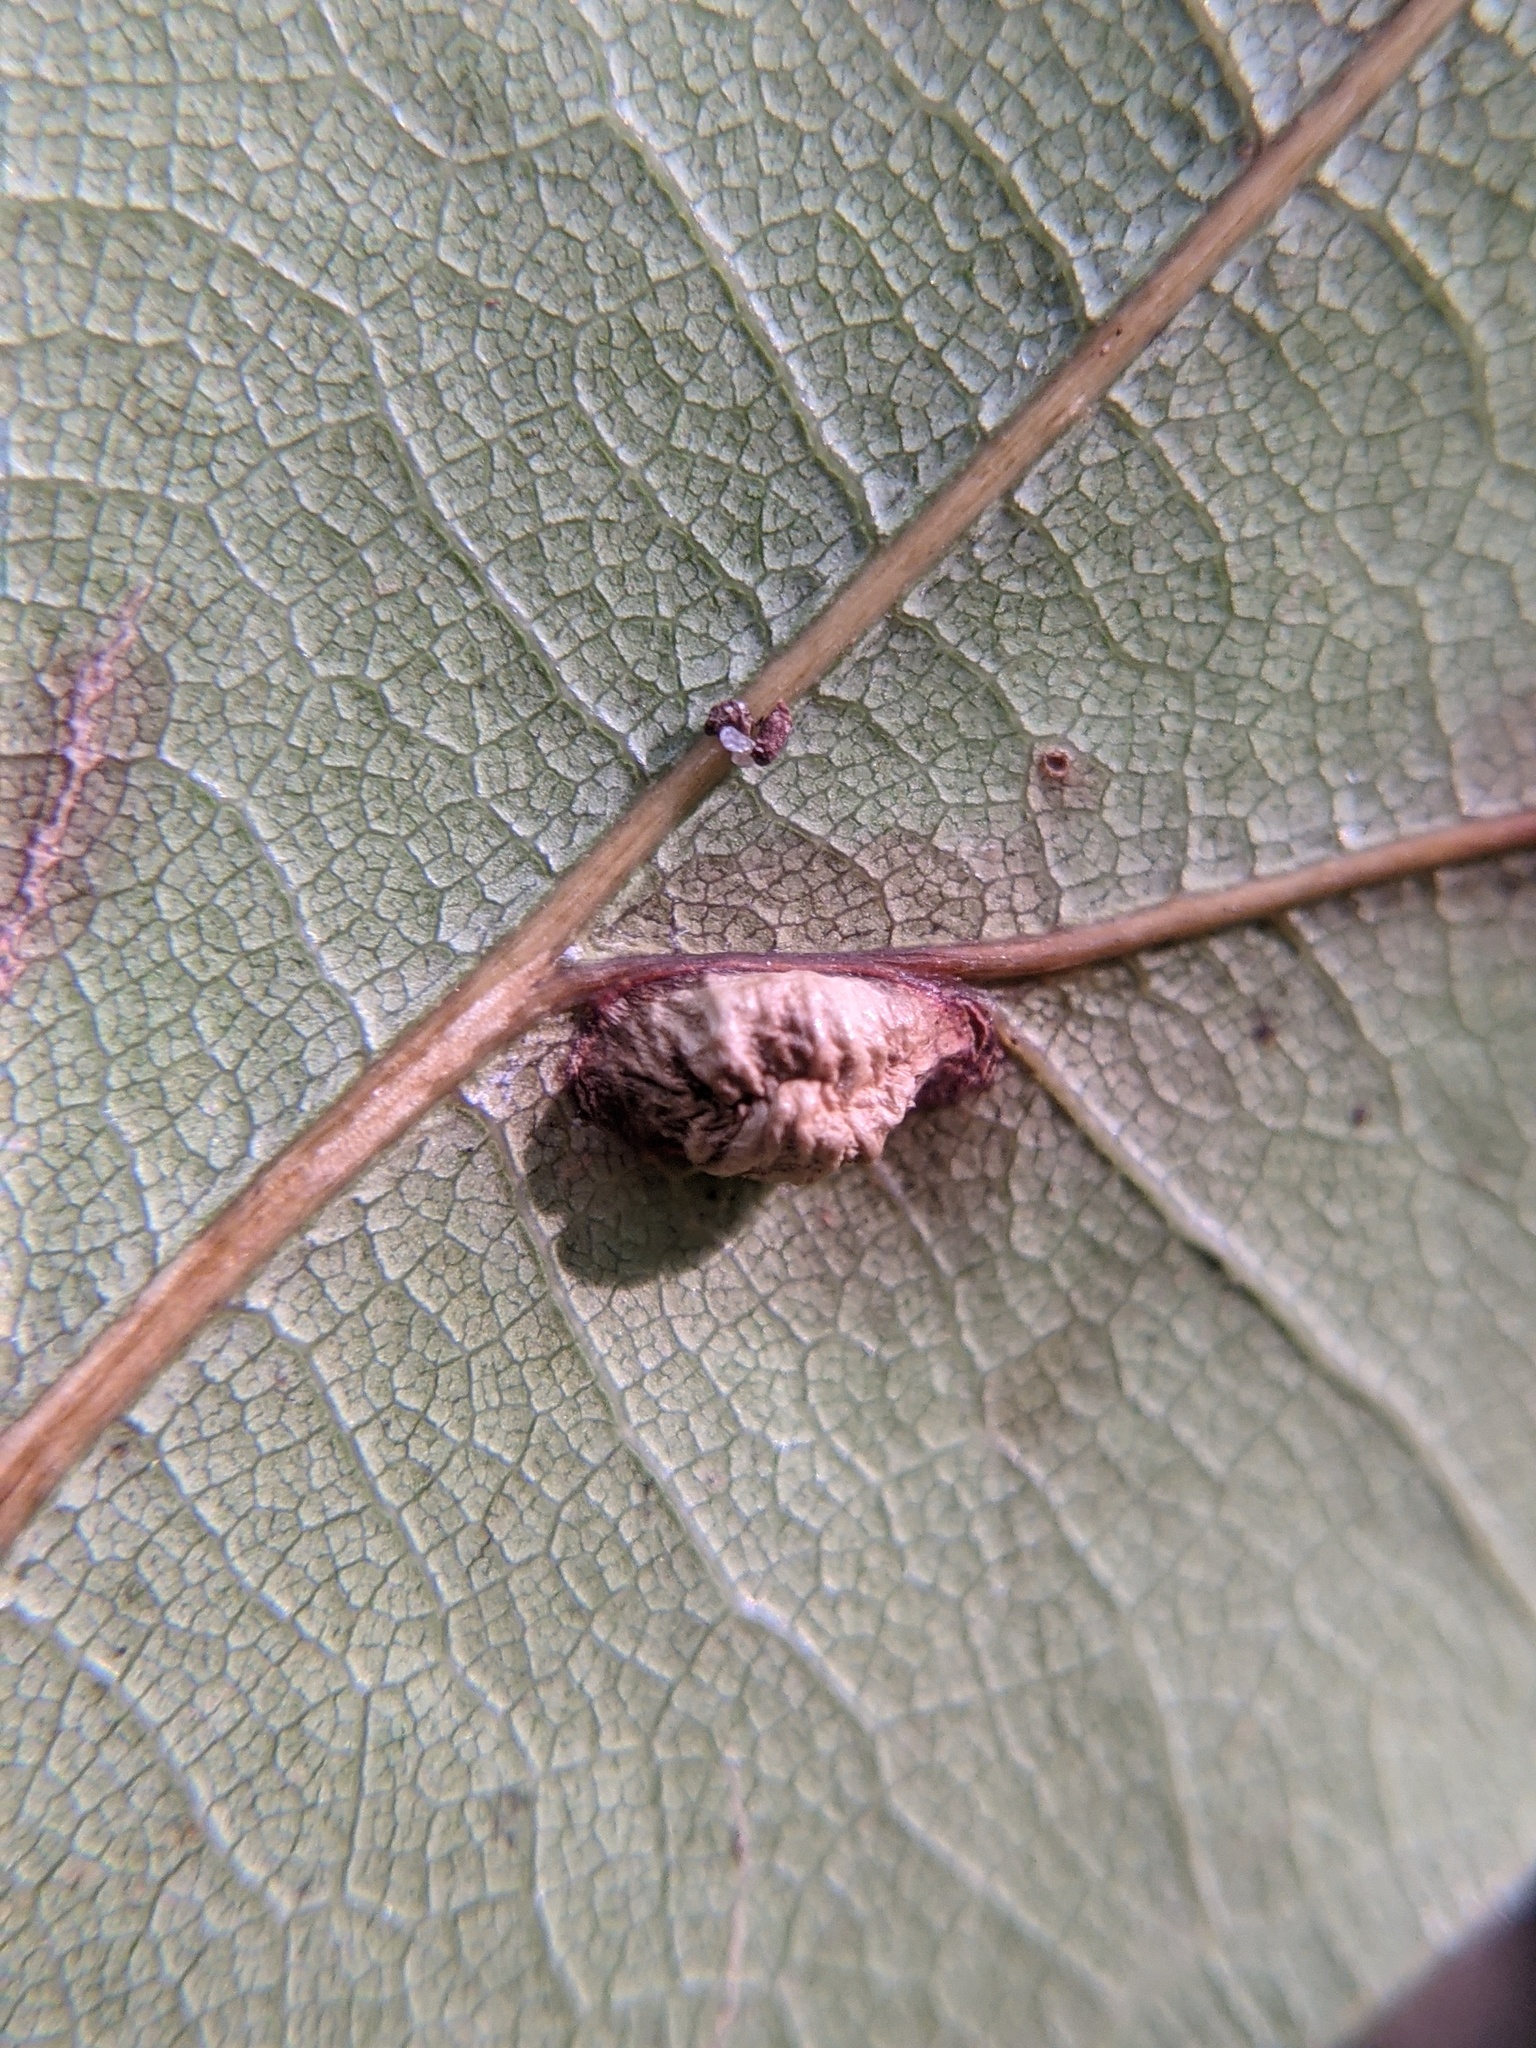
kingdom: Animalia
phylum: Arthropoda
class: Insecta
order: Diptera
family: Cecidomyiidae
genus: Macrodiplosis
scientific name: Macrodiplosis majalis
